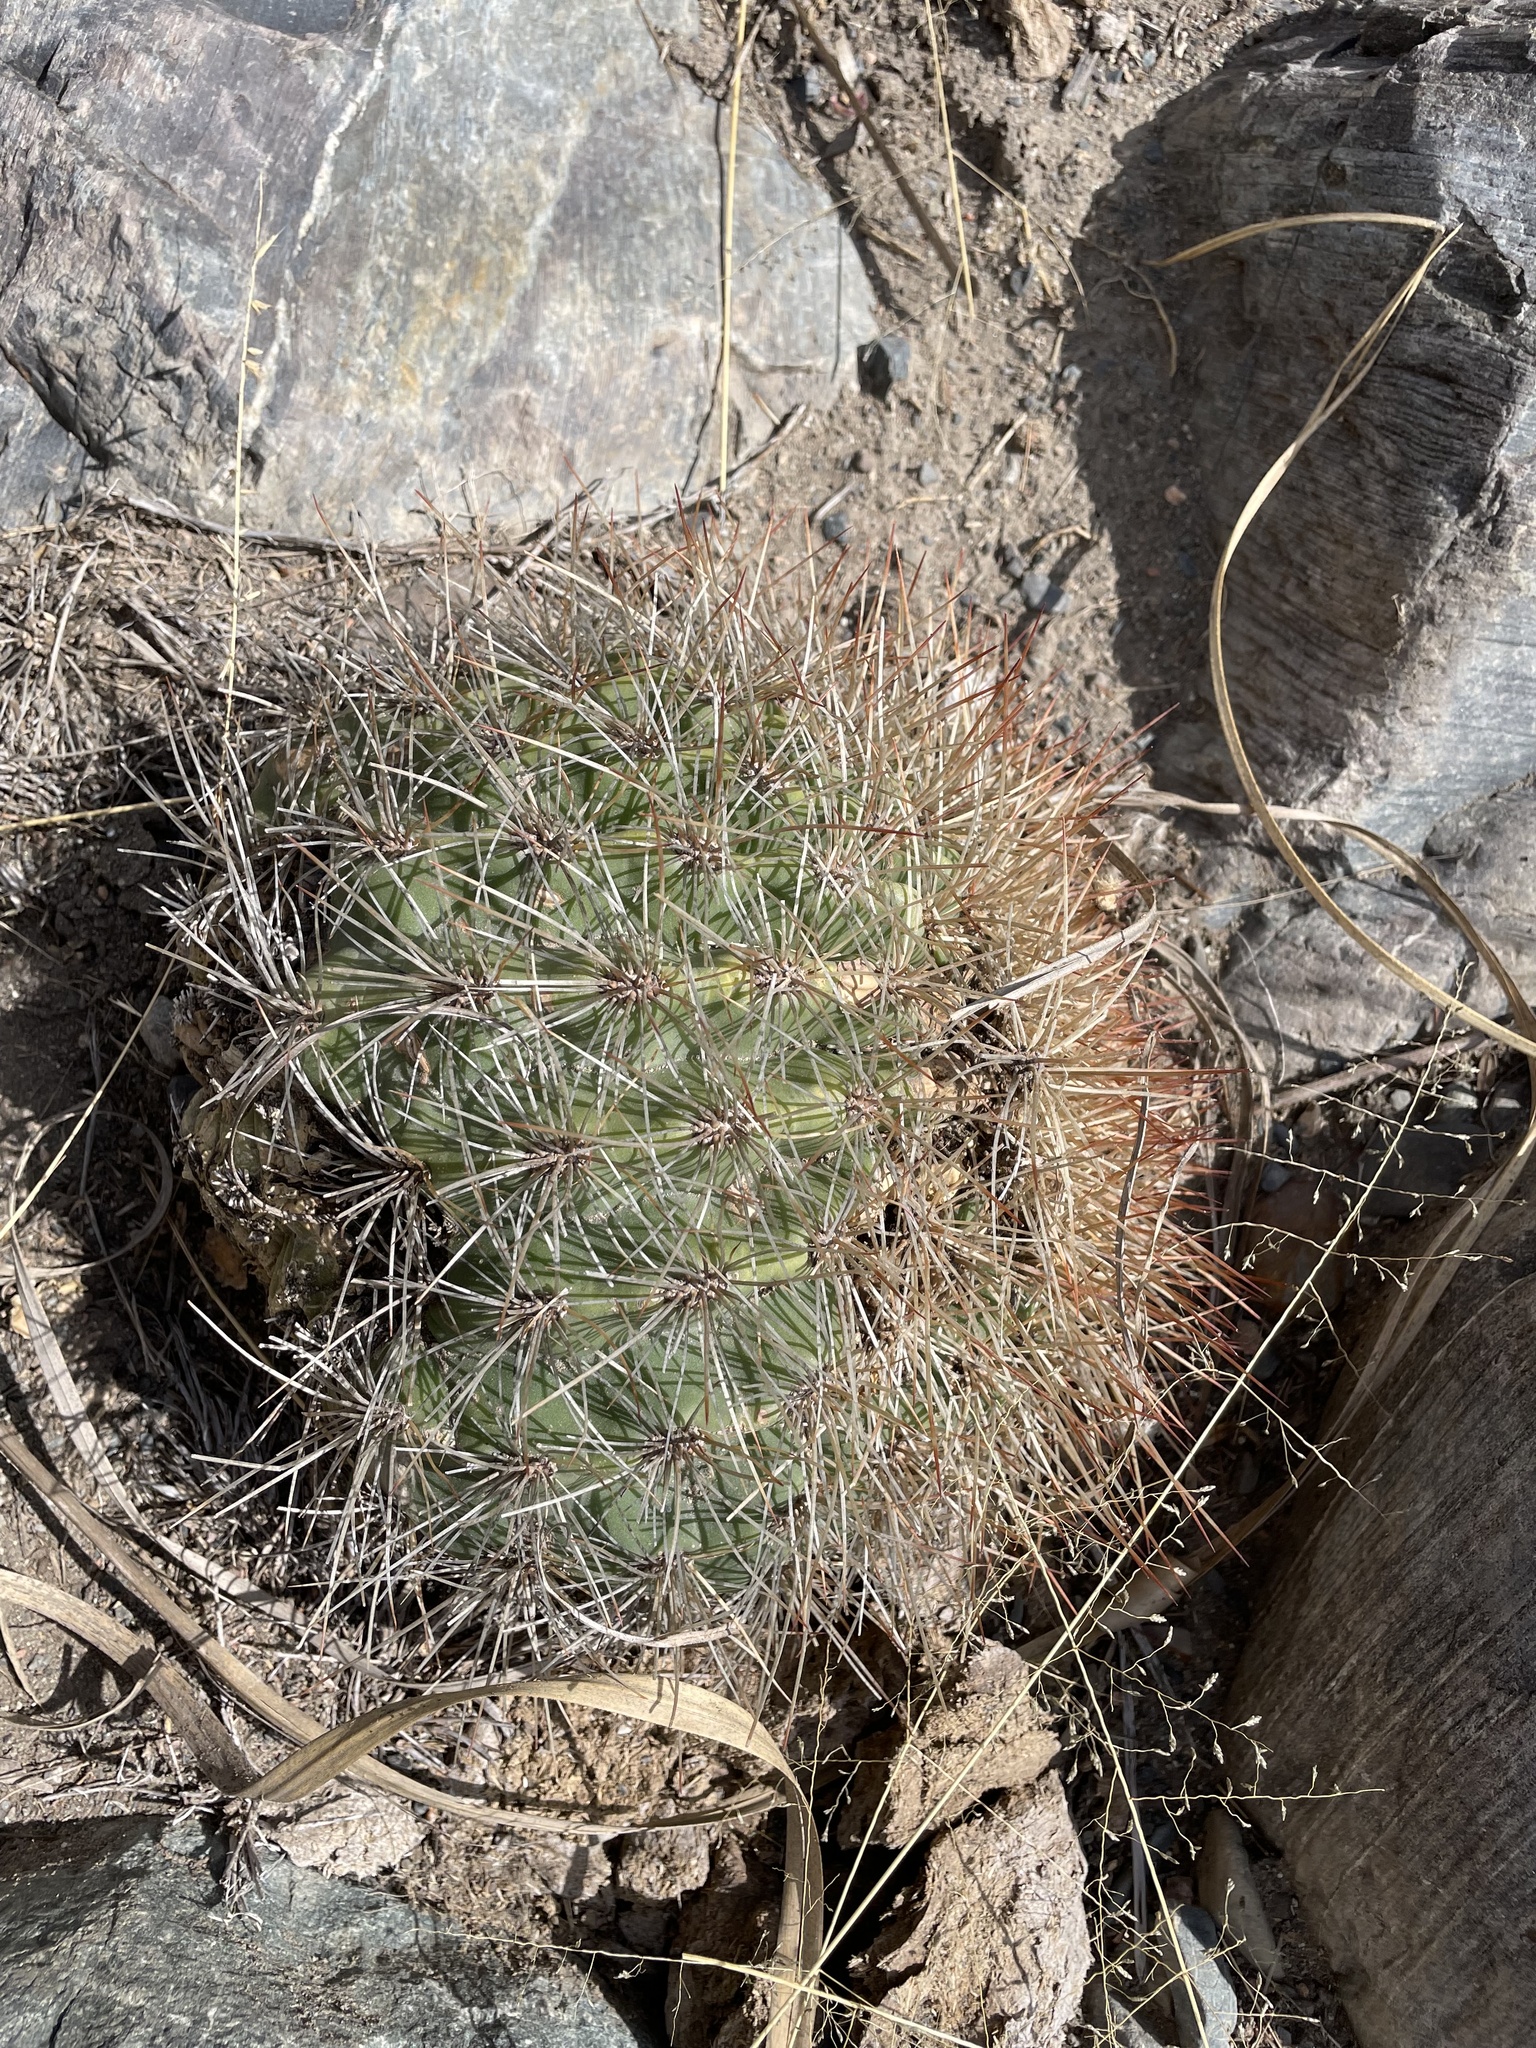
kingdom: Plantae
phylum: Tracheophyta
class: Magnoliopsida
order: Caryophyllales
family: Cactaceae
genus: Soehrensia
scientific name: Soehrensia formosa
